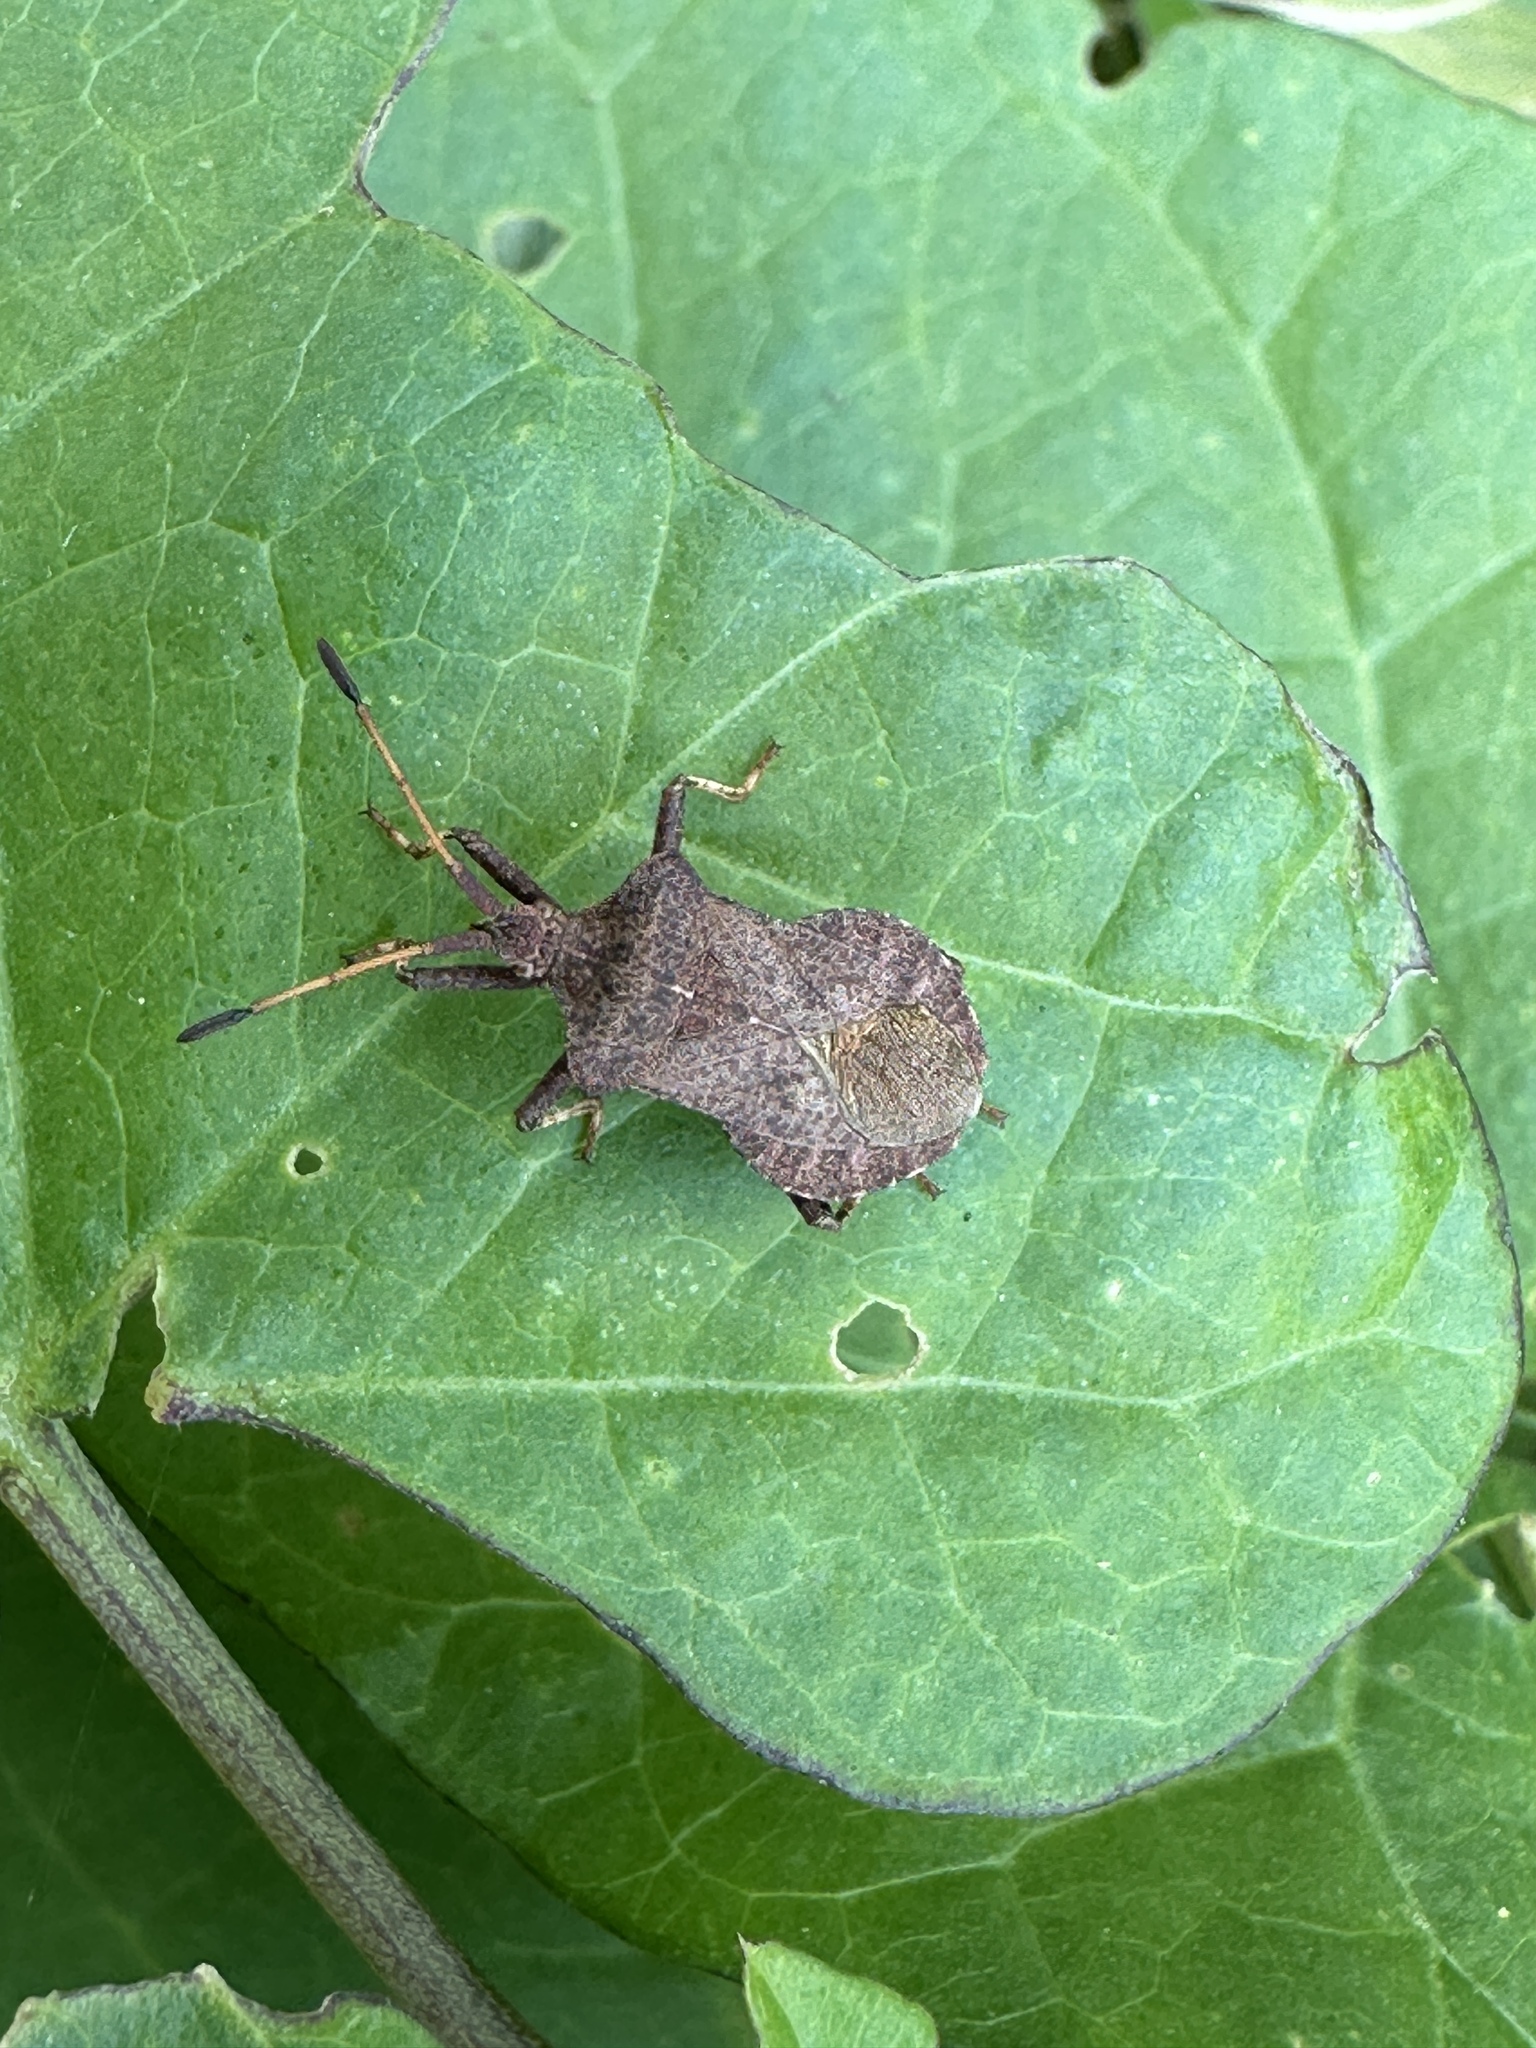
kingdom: Animalia
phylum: Arthropoda
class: Insecta
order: Hemiptera
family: Coreidae
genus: Coreus
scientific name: Coreus marginatus
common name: Dock bug
